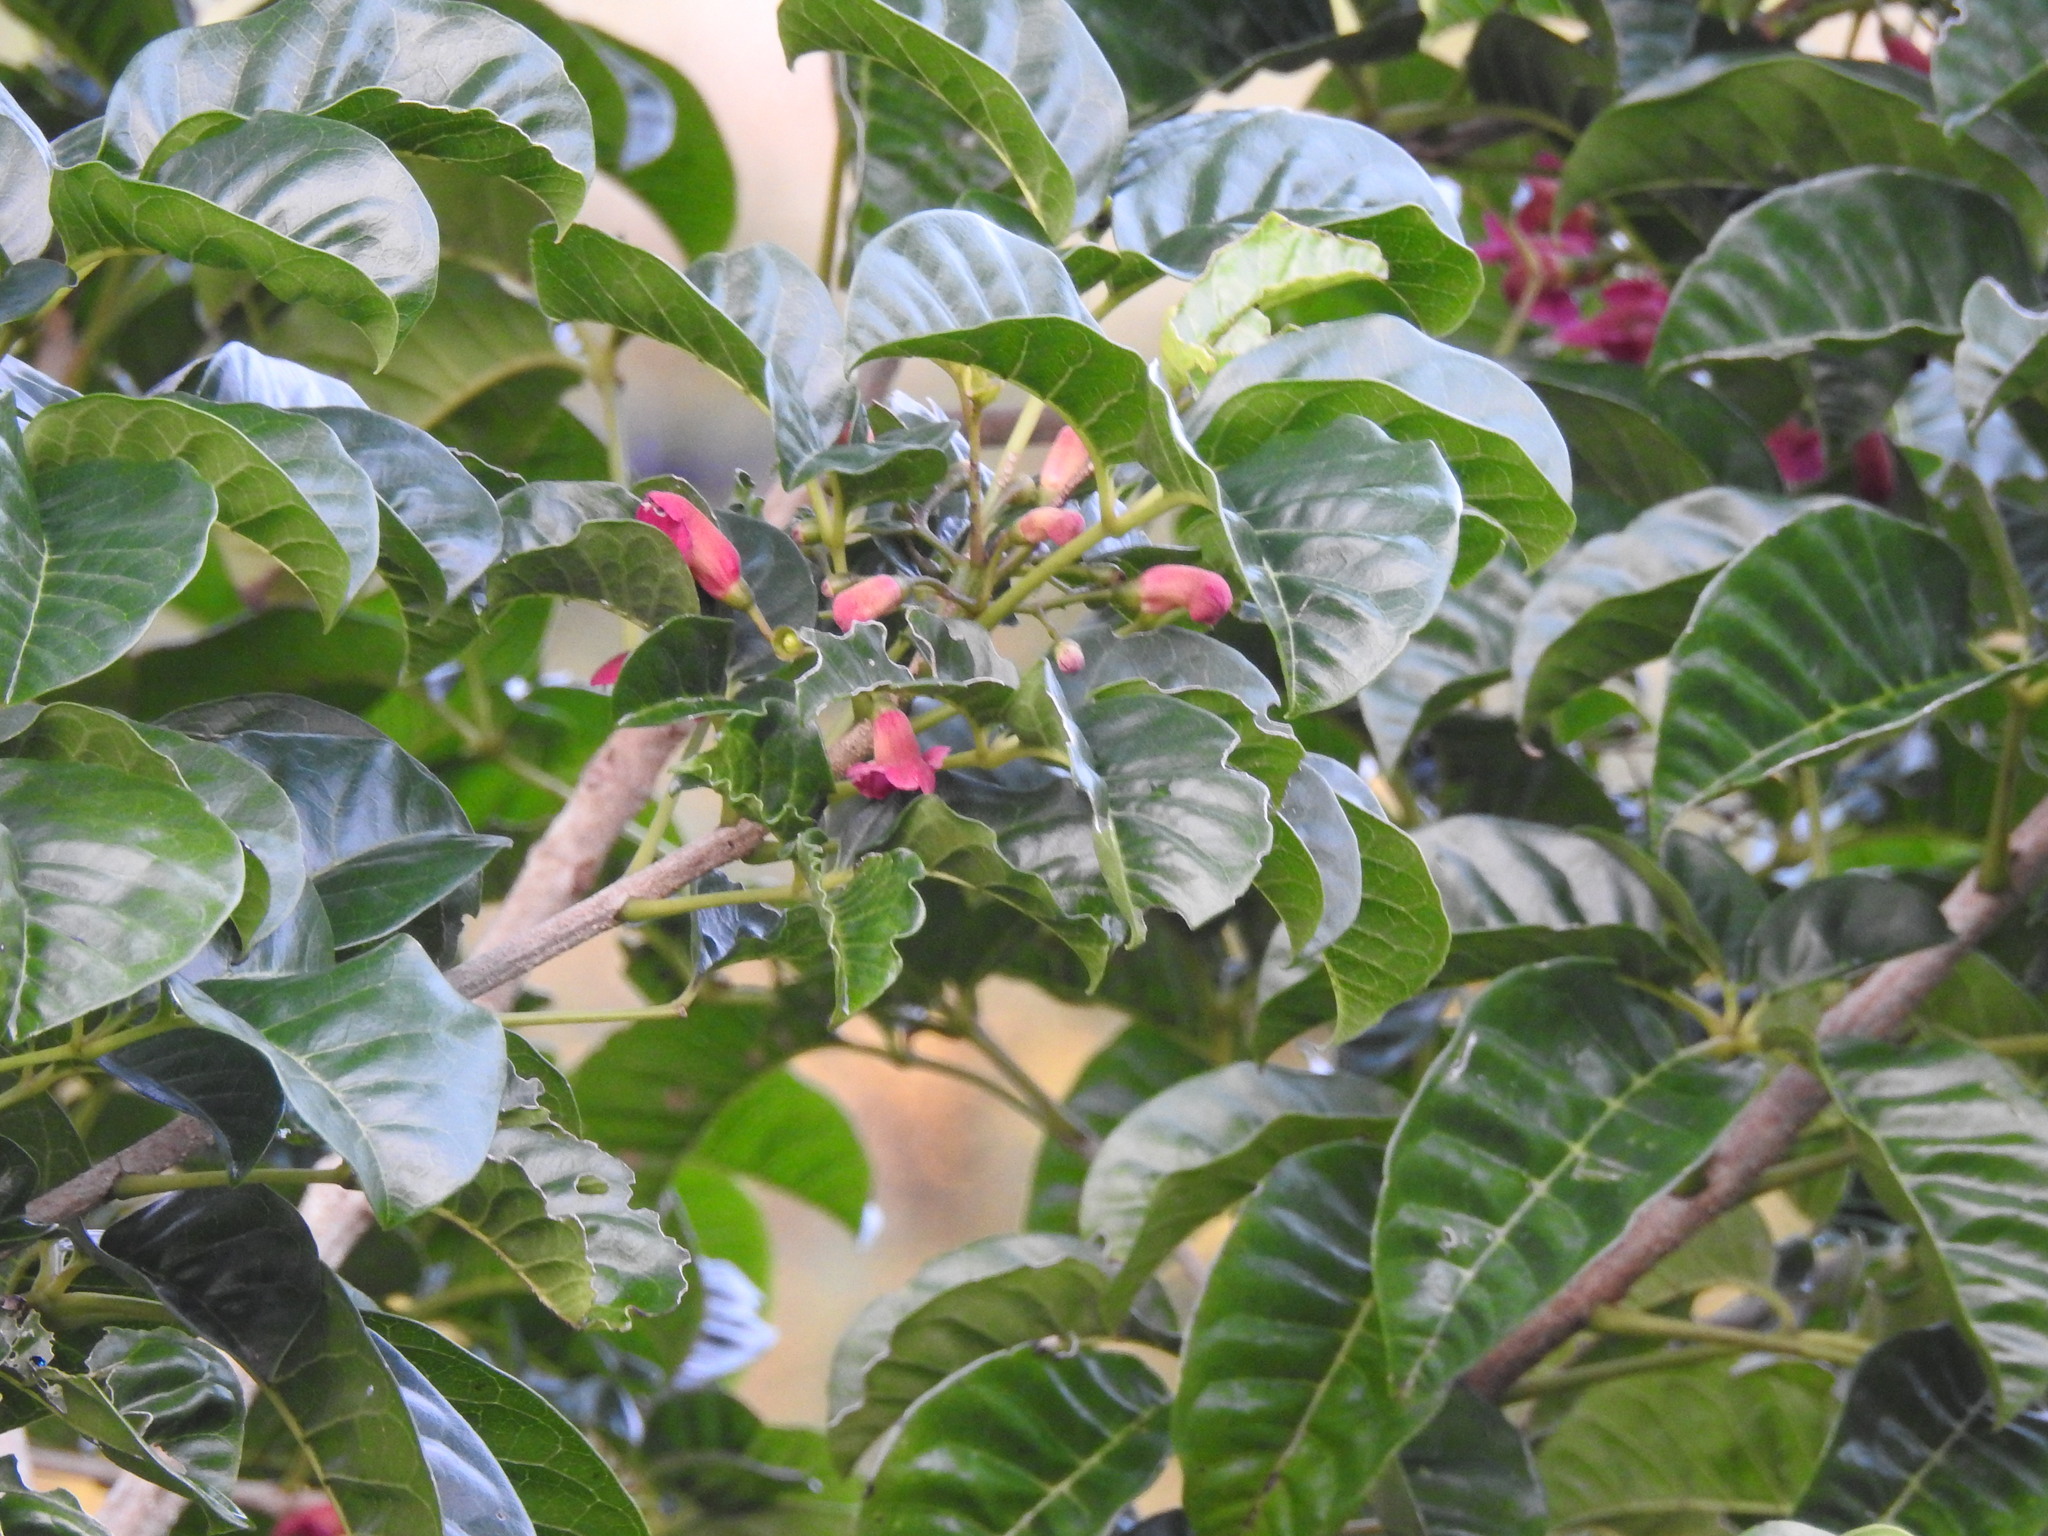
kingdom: Plantae
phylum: Tracheophyta
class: Magnoliopsida
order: Lamiales
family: Lamiaceae
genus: Vitex
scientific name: Vitex lucens
